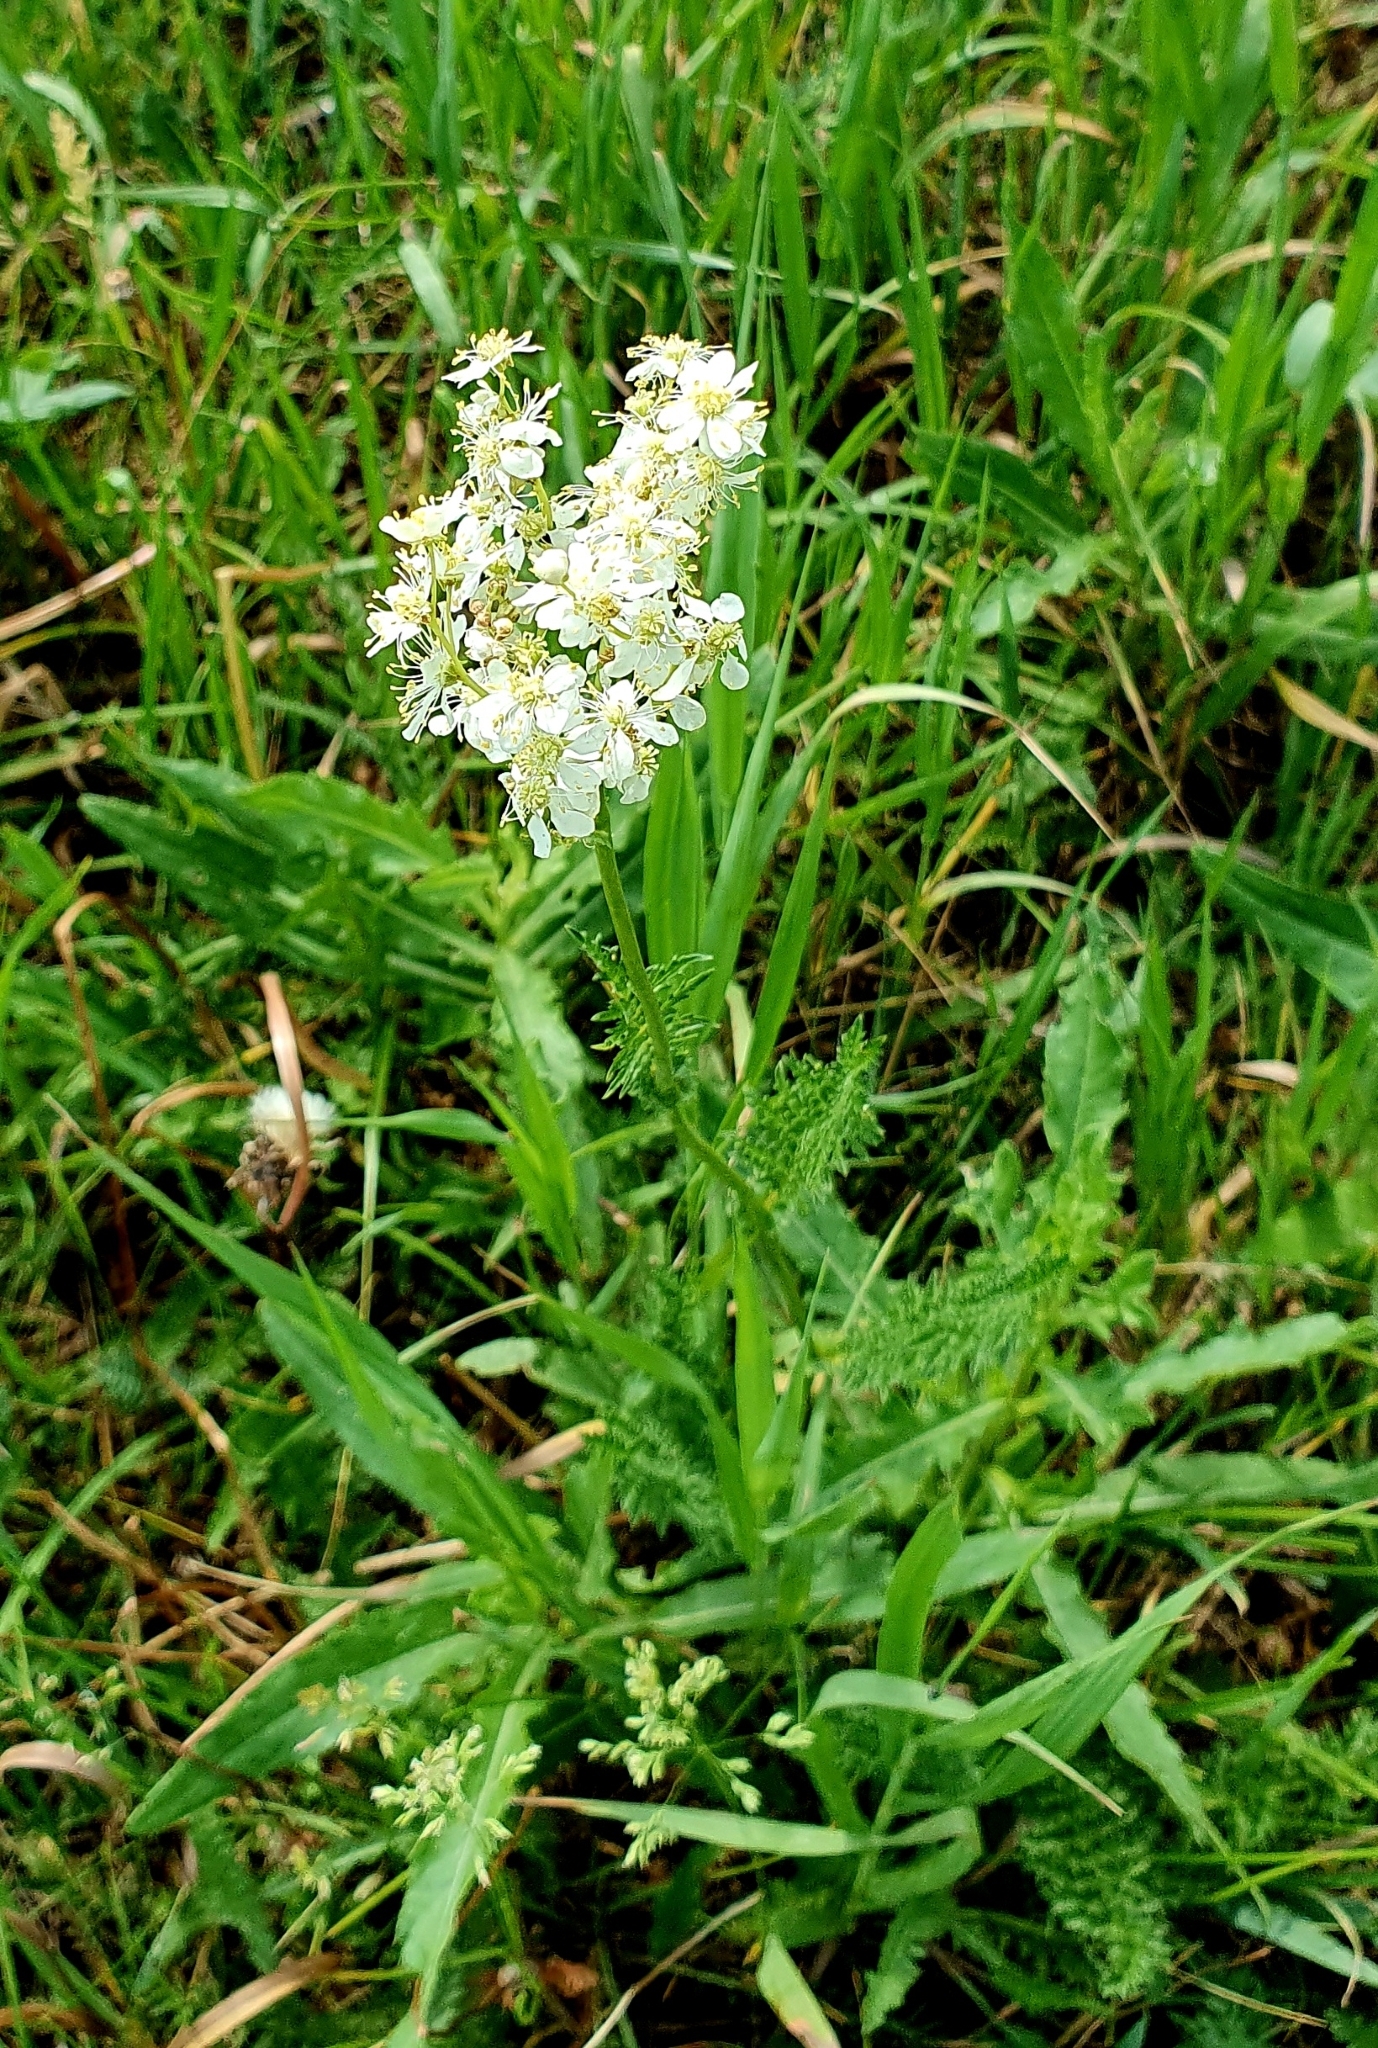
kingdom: Plantae
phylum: Tracheophyta
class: Magnoliopsida
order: Rosales
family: Rosaceae
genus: Filipendula
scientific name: Filipendula vulgaris
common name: Dropwort
